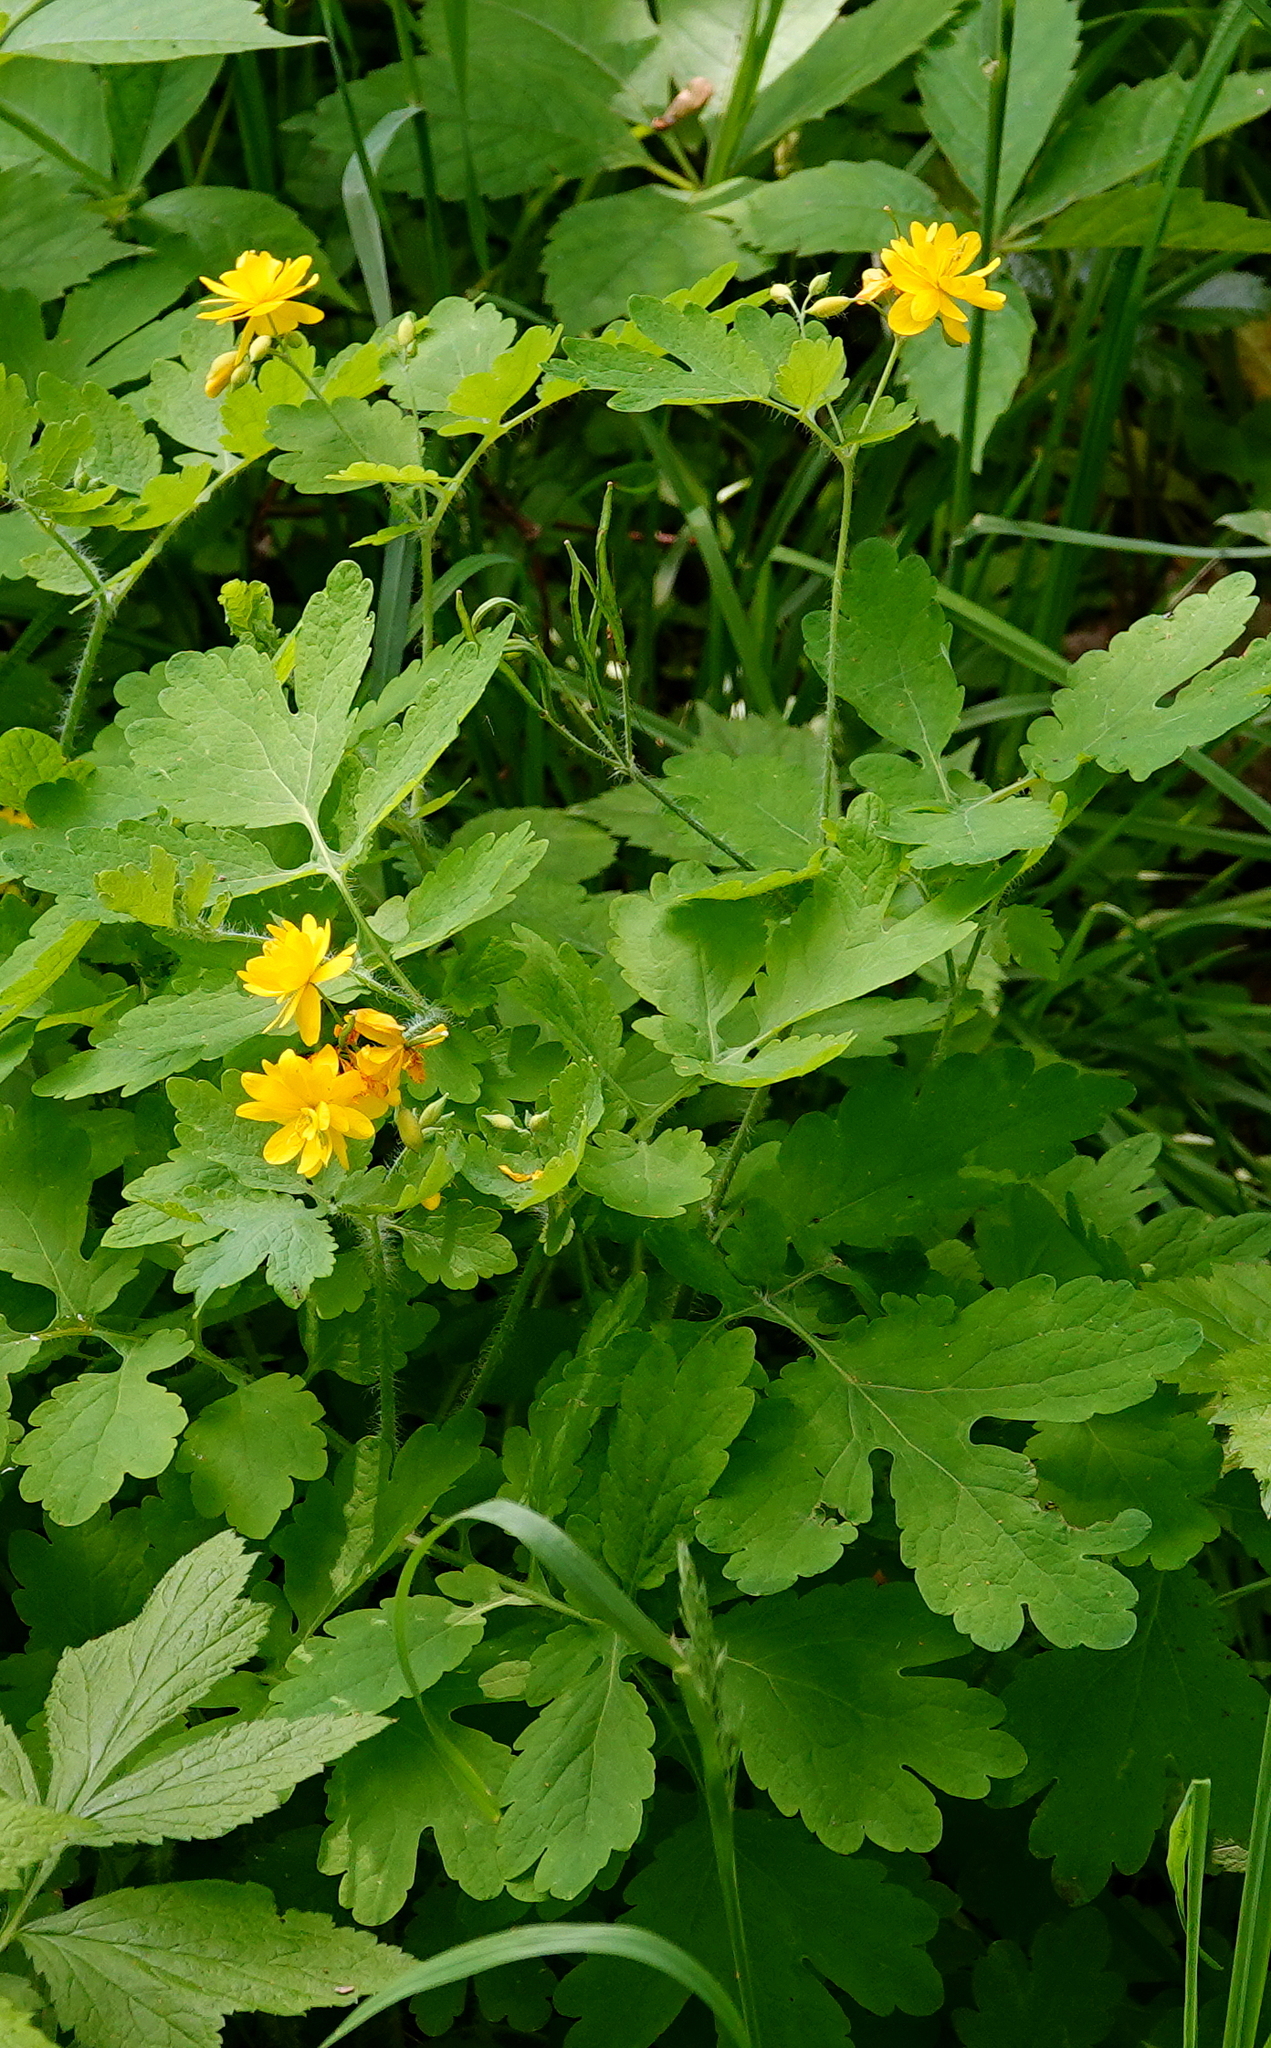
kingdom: Plantae
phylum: Tracheophyta
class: Magnoliopsida
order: Ranunculales
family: Papaveraceae
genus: Chelidonium
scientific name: Chelidonium majus
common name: Greater celandine
